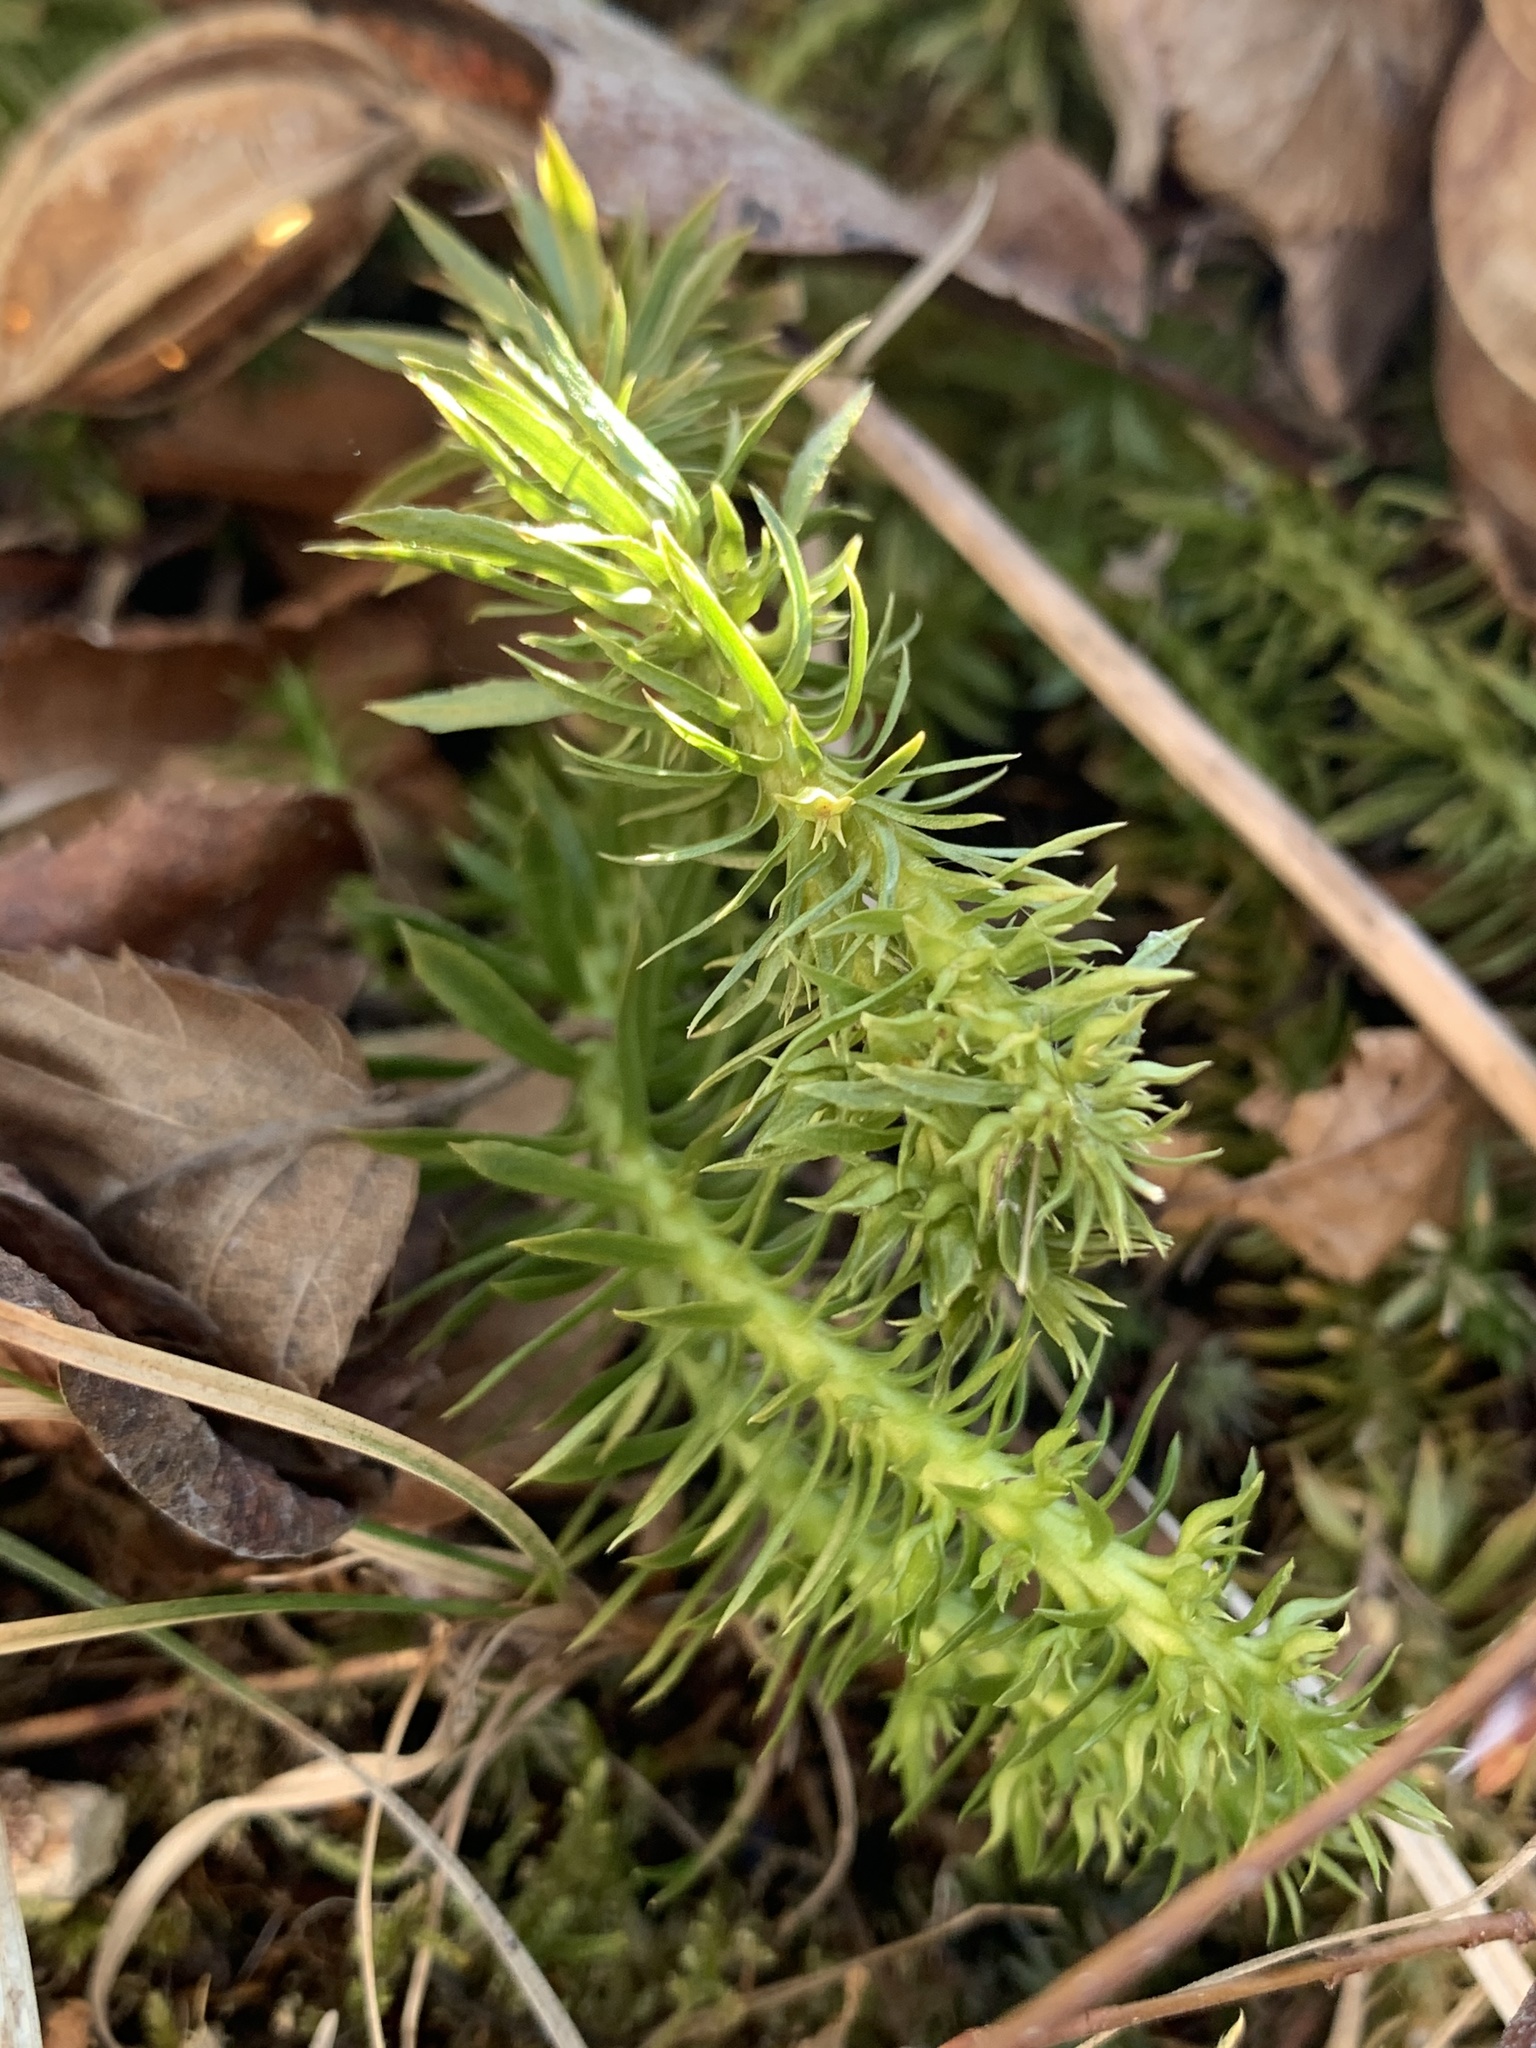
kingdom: Plantae
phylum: Tracheophyta
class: Lycopodiopsida
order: Lycopodiales
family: Lycopodiaceae
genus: Huperzia
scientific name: Huperzia lucidula
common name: Shining clubmoss
